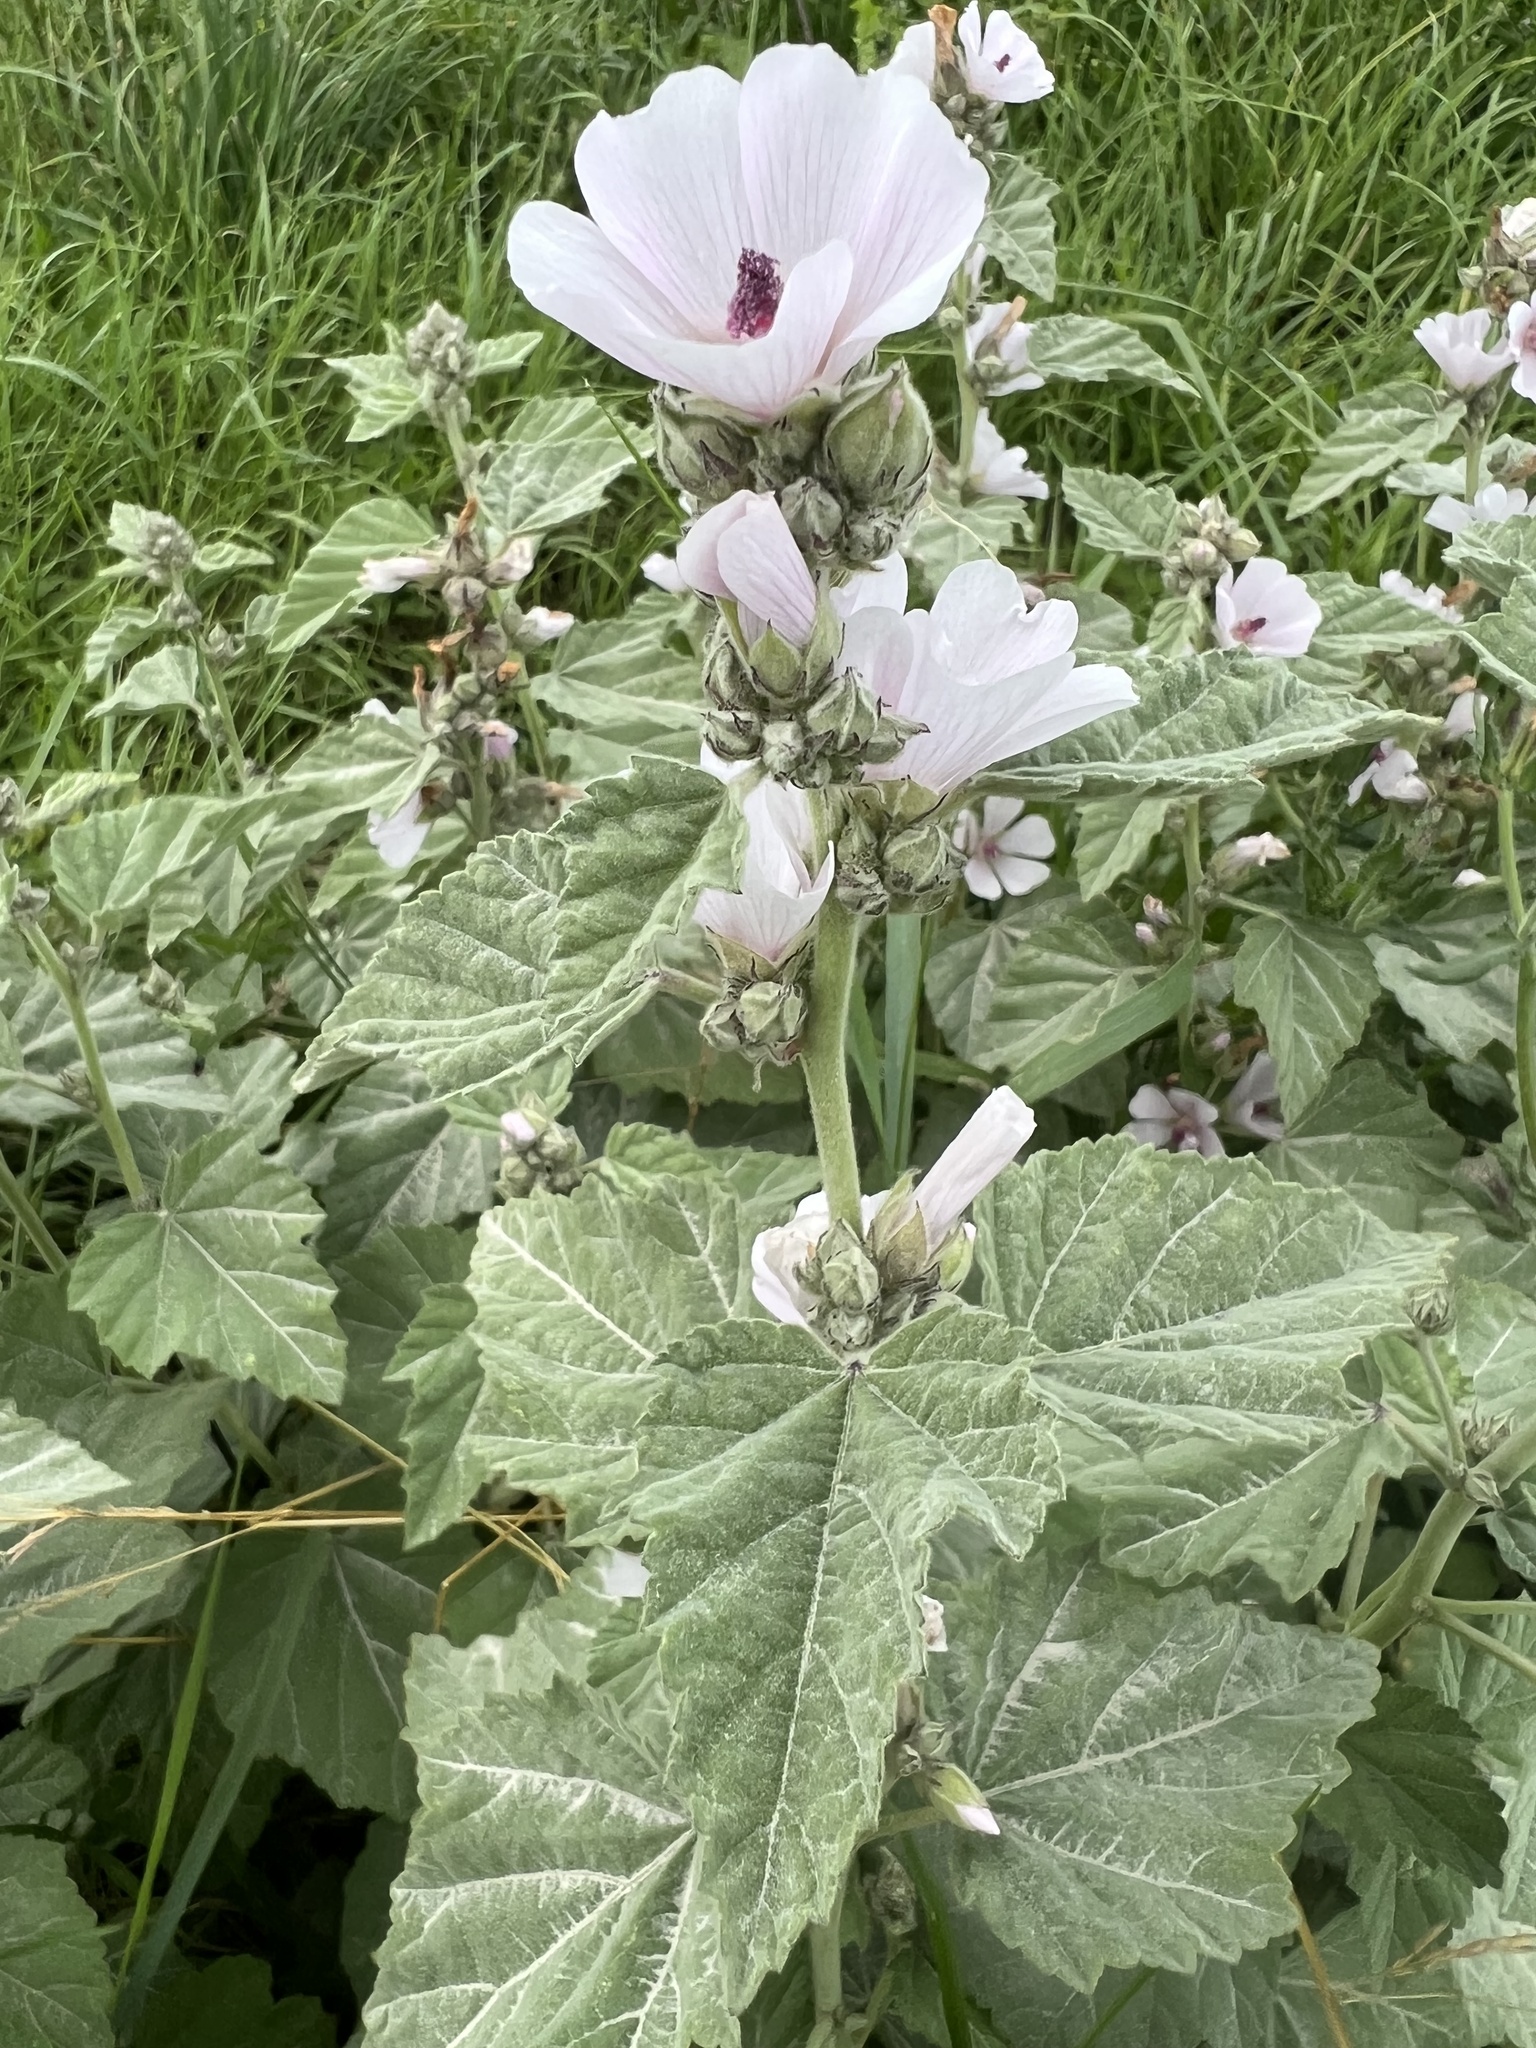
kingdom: Plantae
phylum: Tracheophyta
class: Magnoliopsida
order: Malvales
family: Malvaceae
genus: Althaea
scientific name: Althaea officinalis
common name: Marsh-mallow
